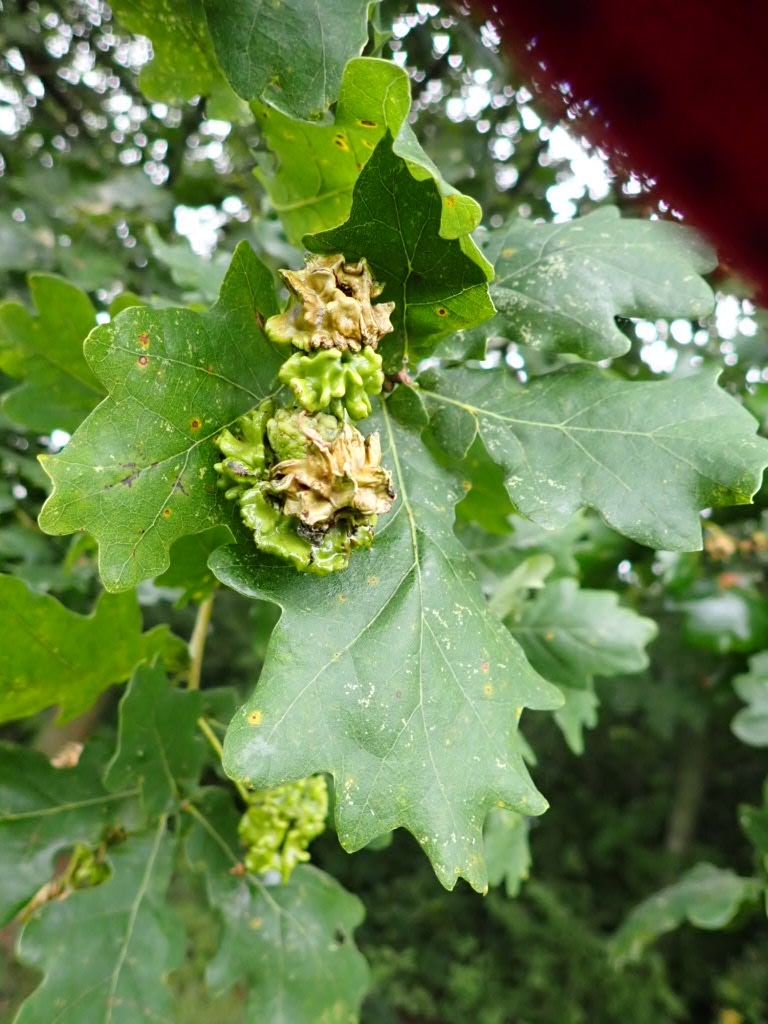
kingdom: Animalia
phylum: Arthropoda
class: Insecta
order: Hymenoptera
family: Cynipidae
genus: Andricus
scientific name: Andricus quercuscalicis
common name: Knopper gall
